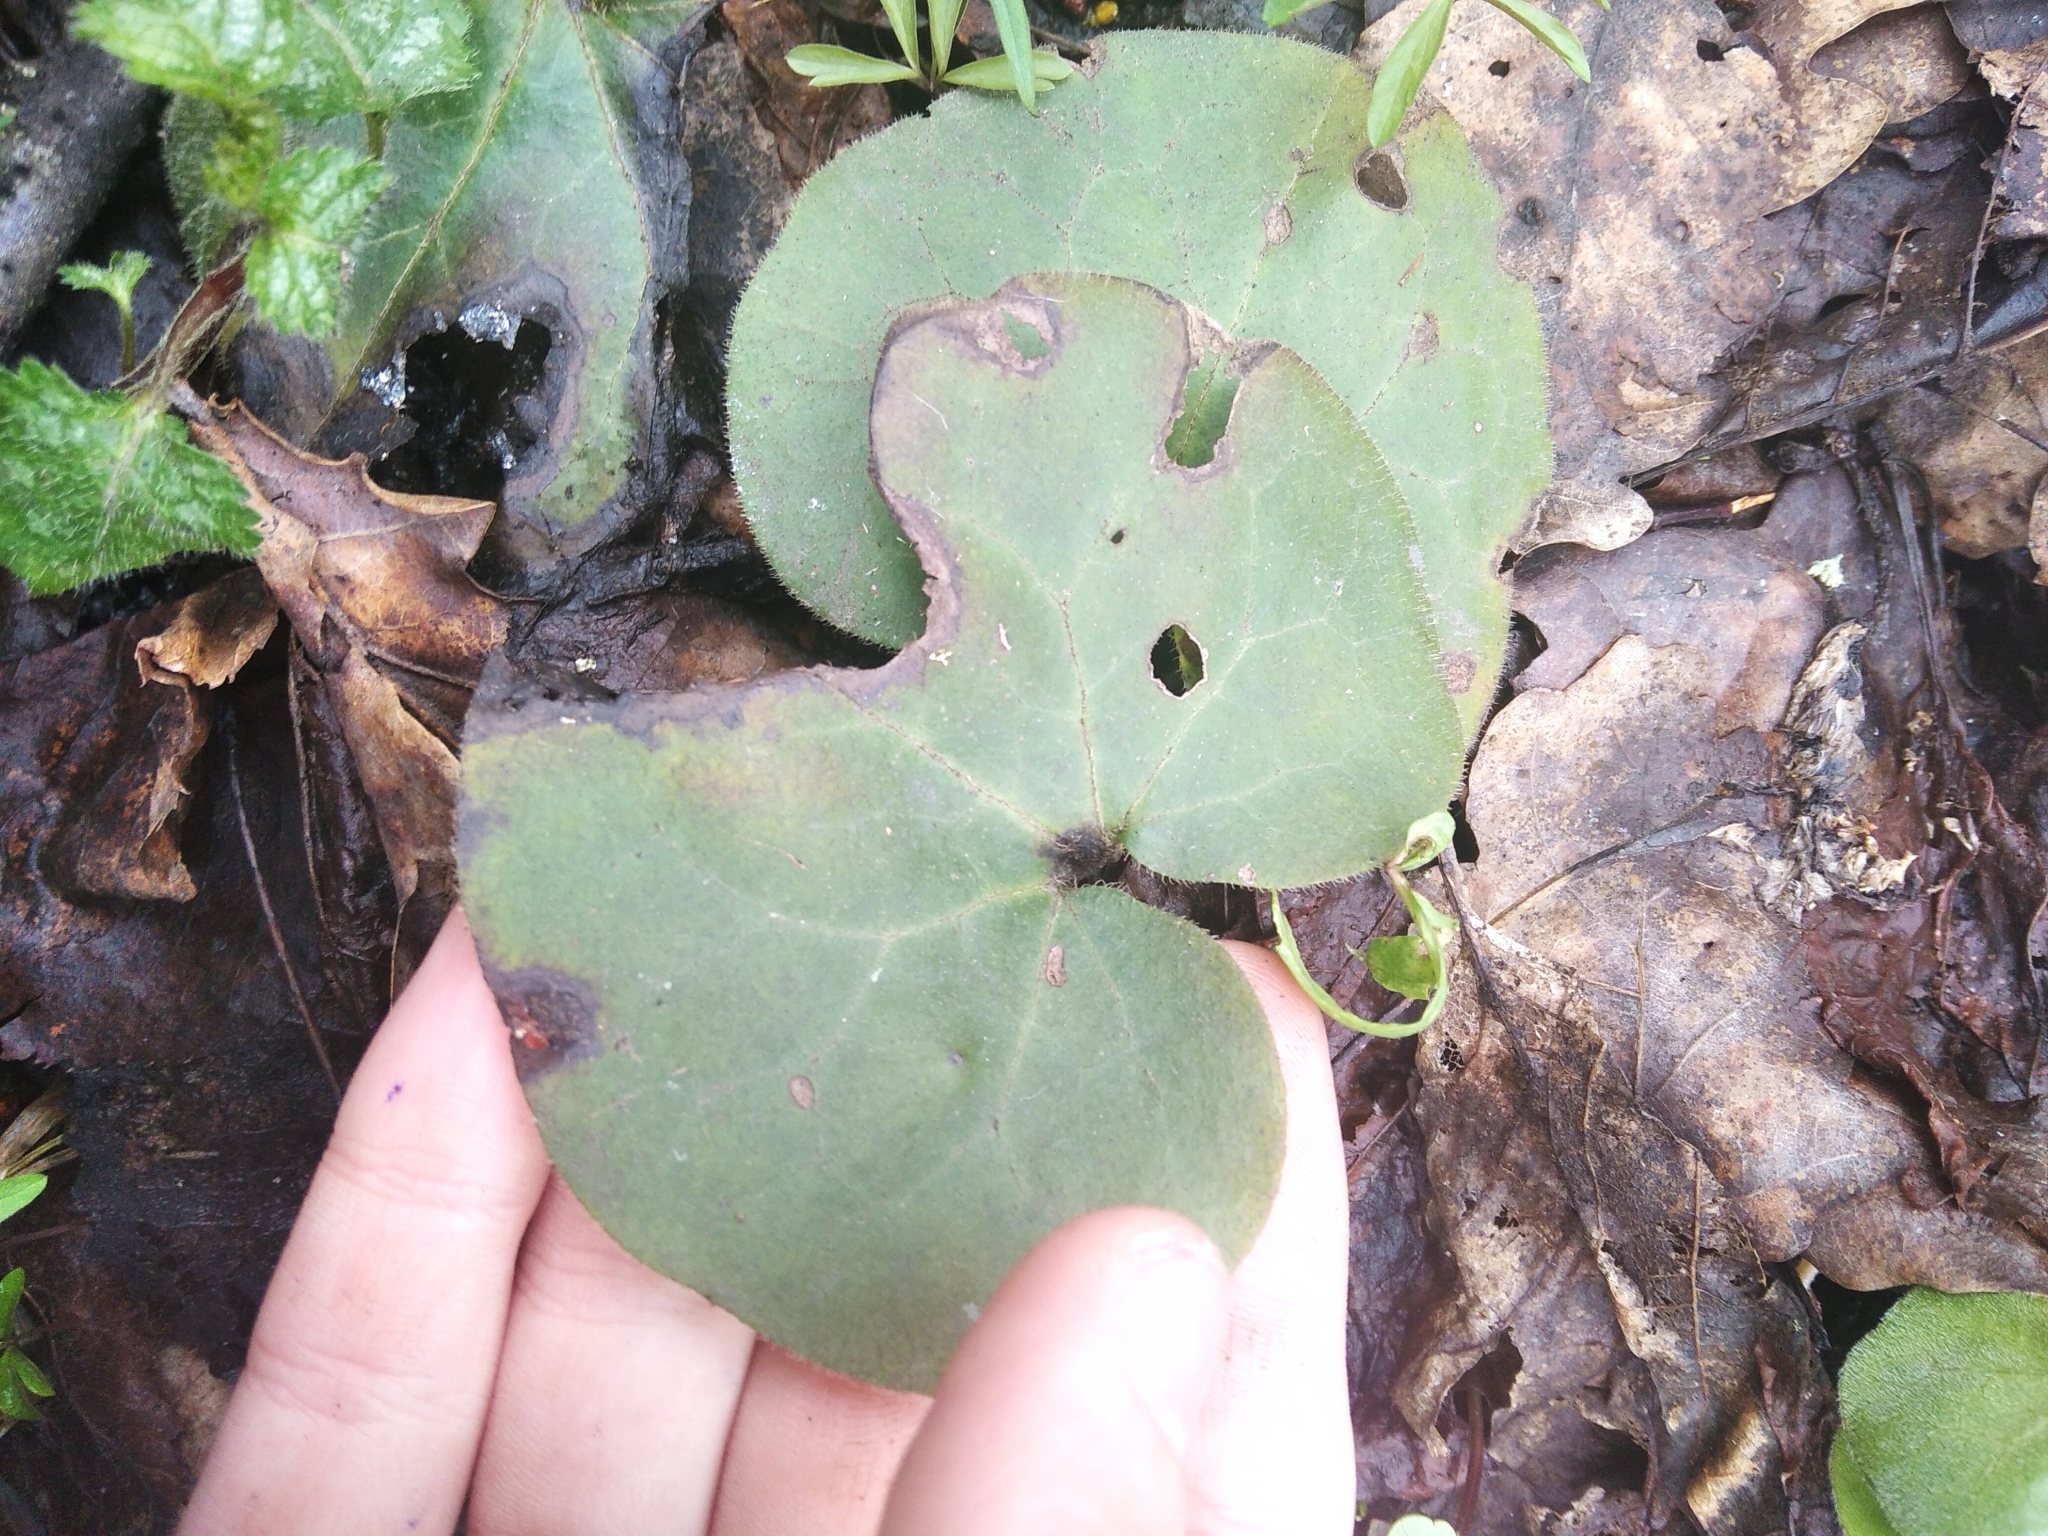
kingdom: Plantae
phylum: Tracheophyta
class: Magnoliopsida
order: Piperales
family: Aristolochiaceae
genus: Asarum
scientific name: Asarum europaeum
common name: Asarabacca
